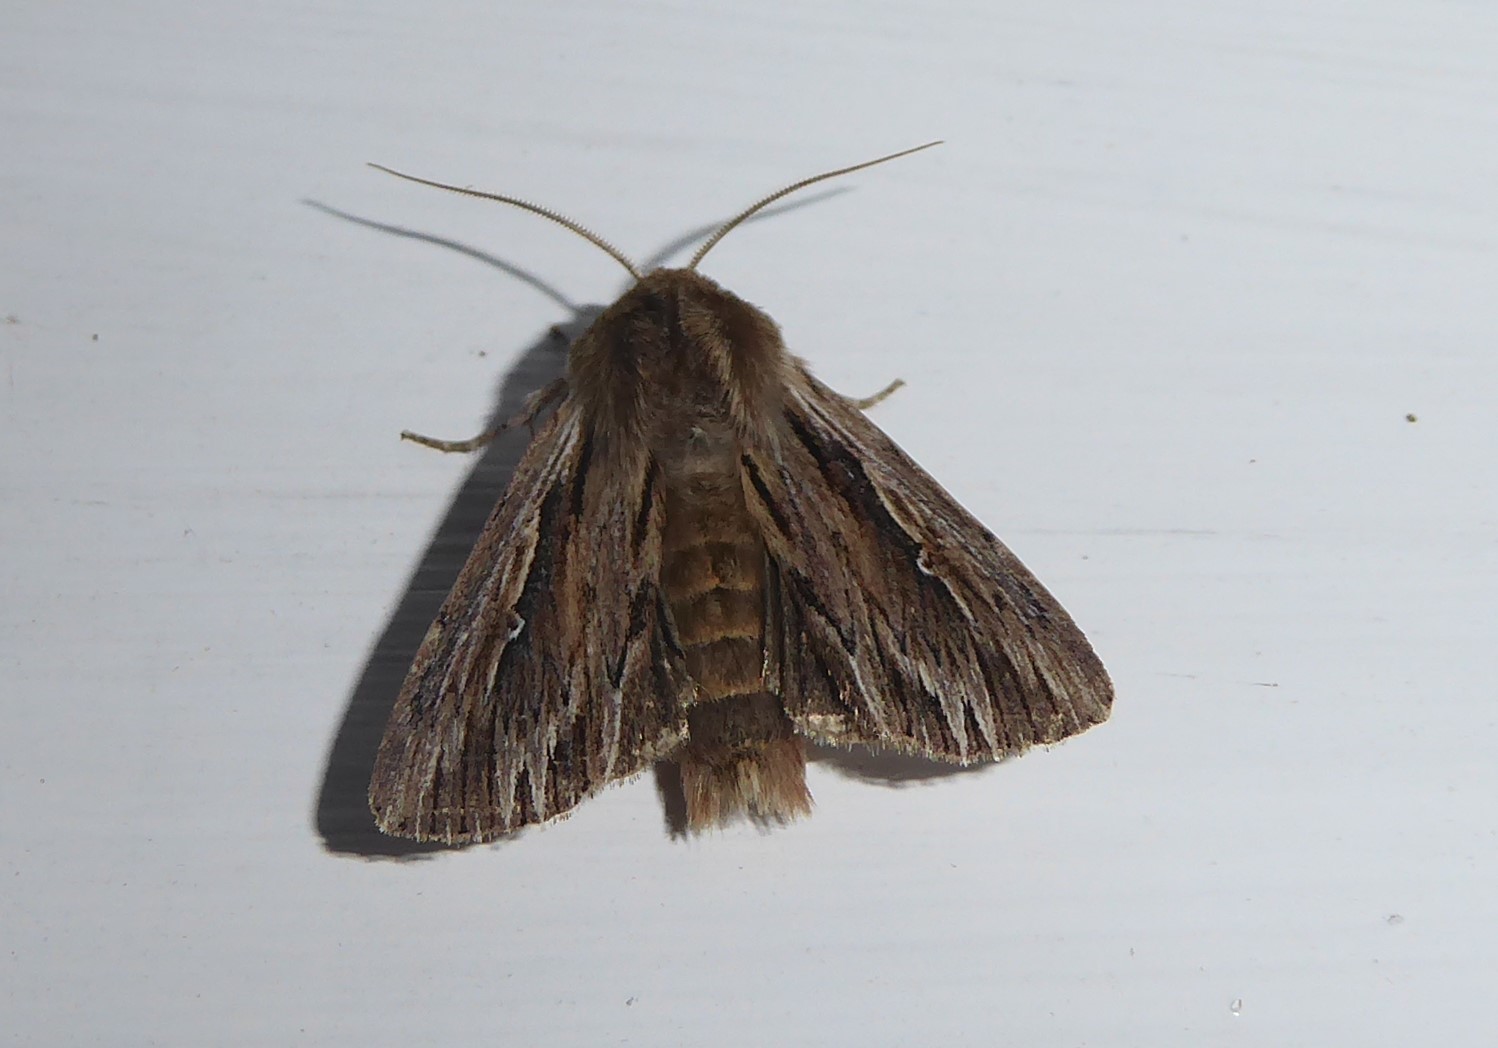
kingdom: Animalia
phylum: Arthropoda
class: Insecta
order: Lepidoptera
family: Noctuidae
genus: Persectania
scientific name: Persectania aversa
